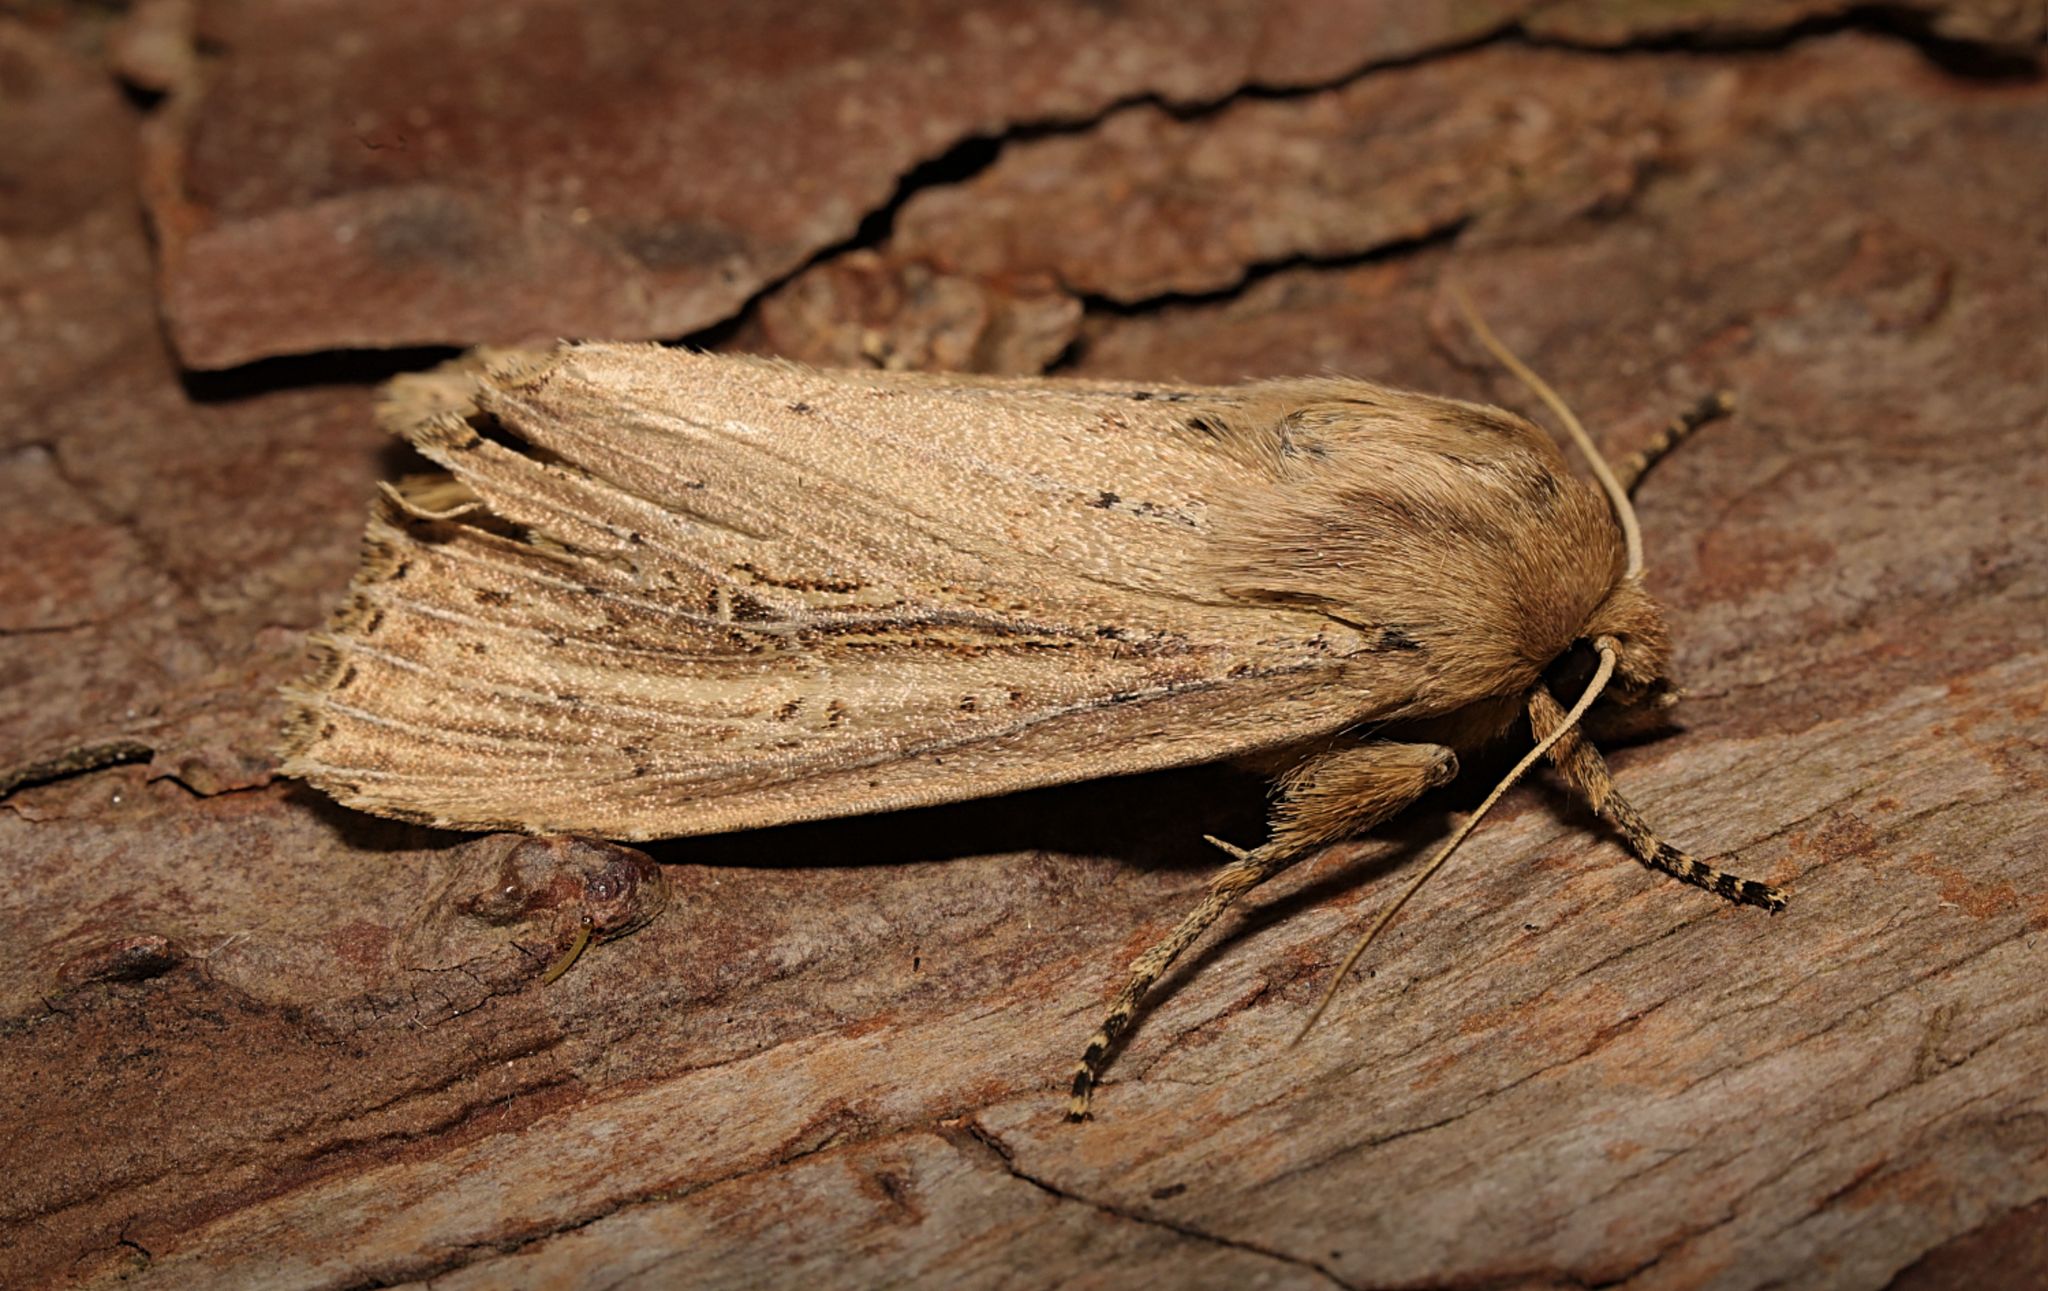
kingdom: Animalia
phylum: Arthropoda
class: Insecta
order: Lepidoptera
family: Noctuidae
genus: Nonagria
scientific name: Nonagria typhae
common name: Bulrush wainscot
